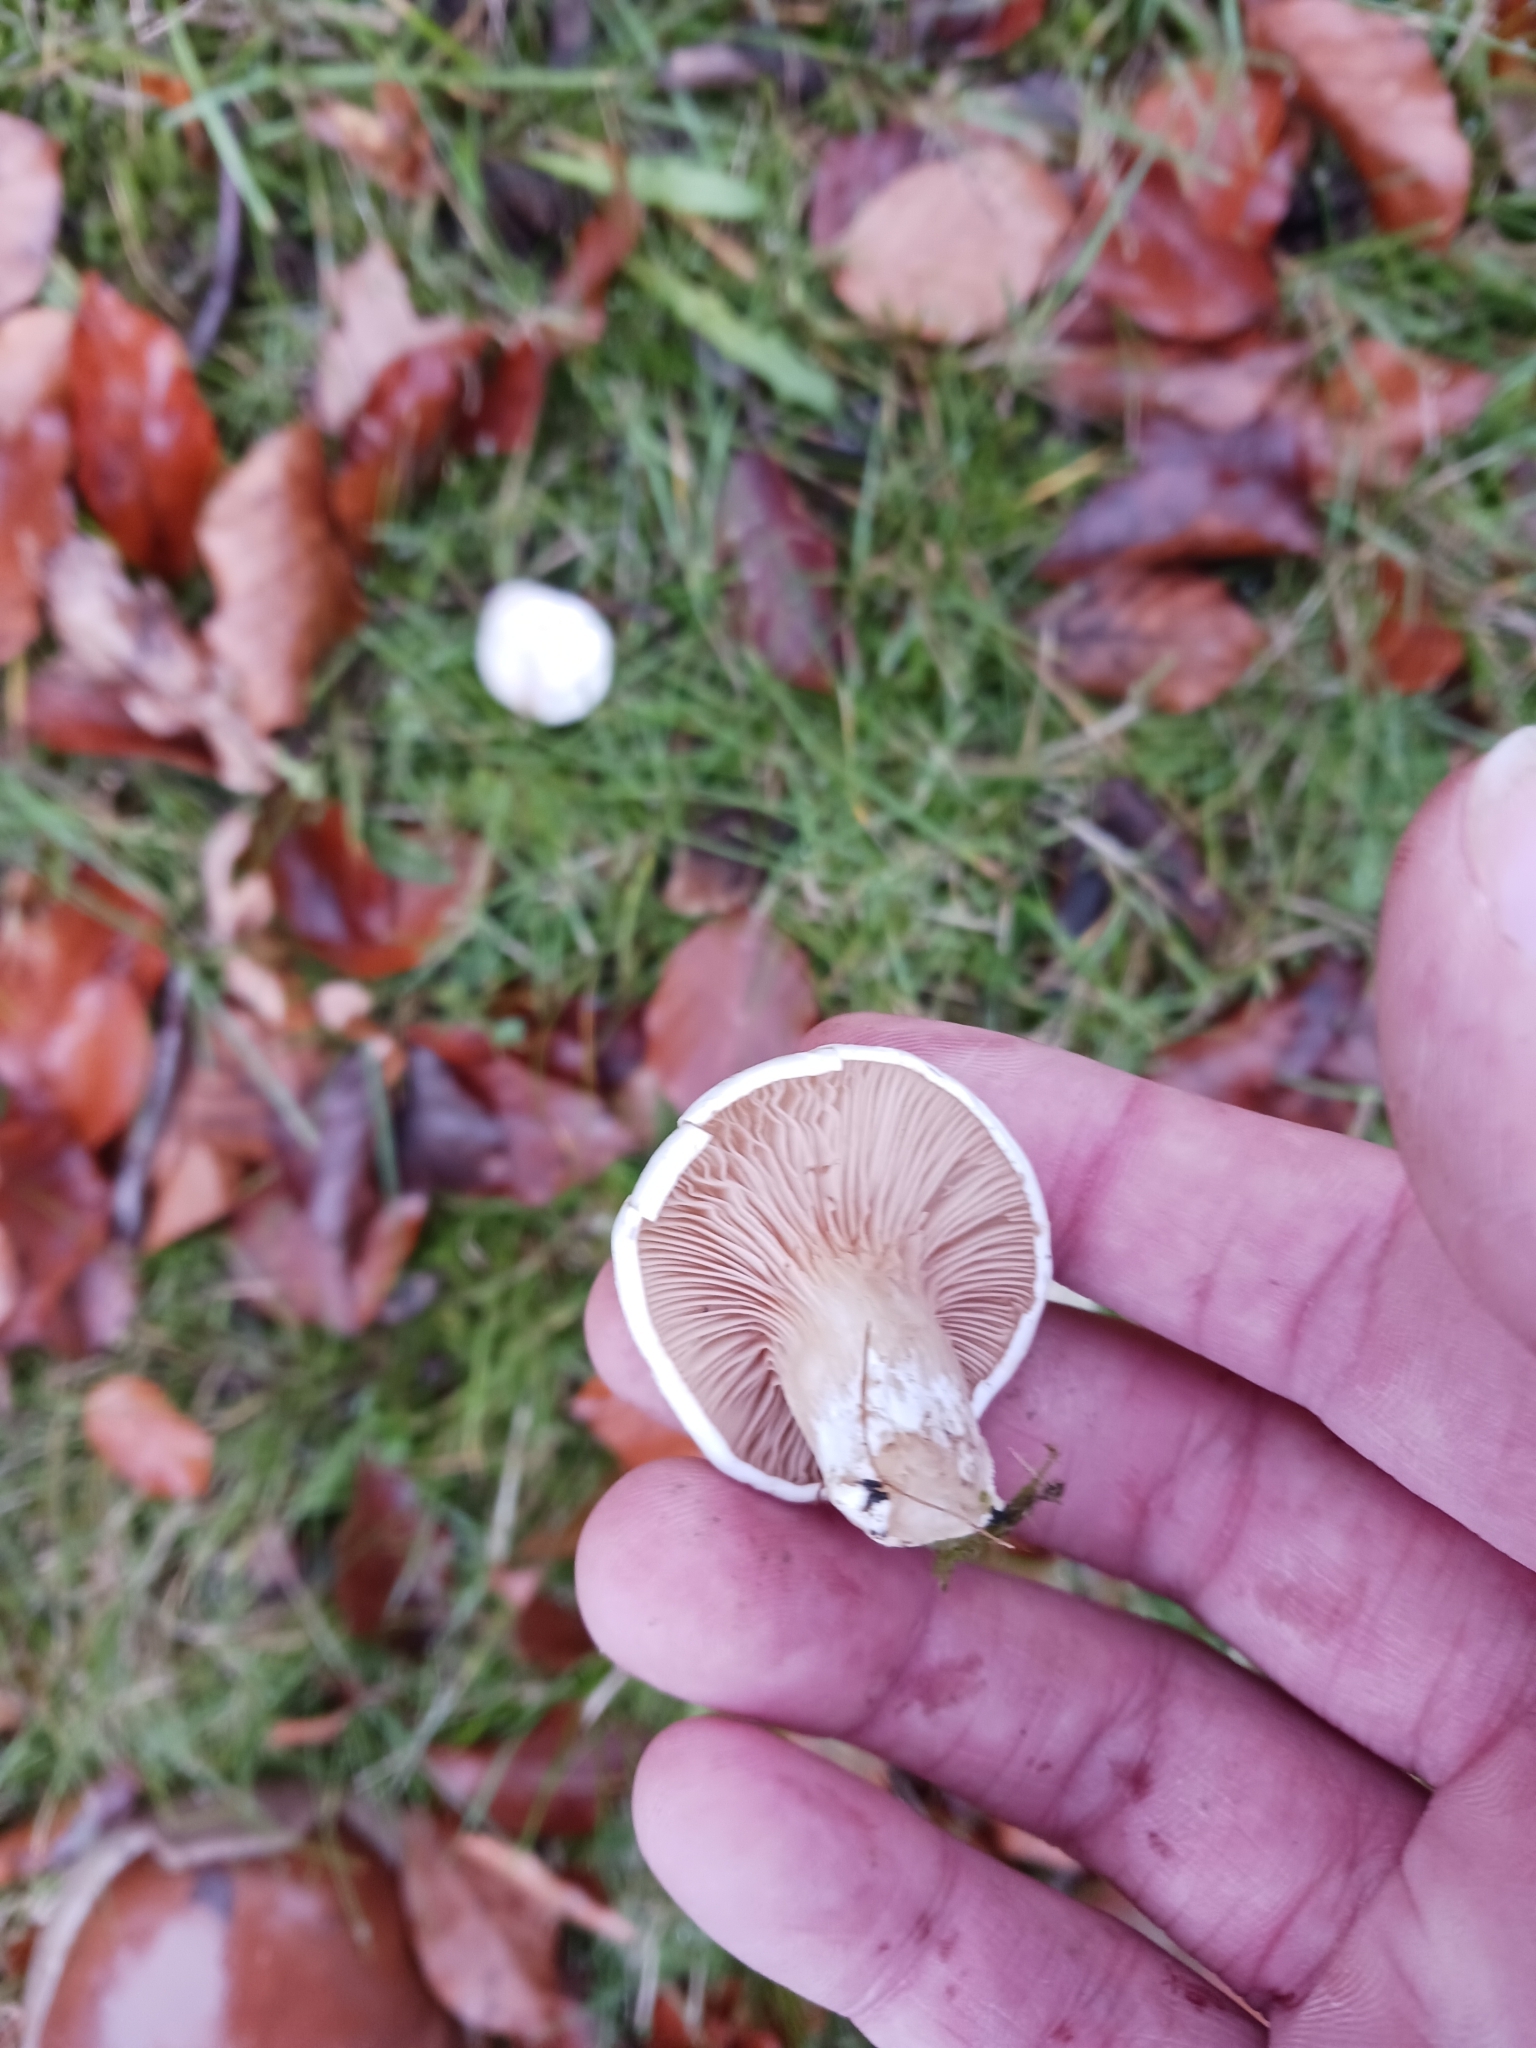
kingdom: Fungi
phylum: Basidiomycota
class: Agaricomycetes
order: Agaricales
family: Entolomataceae
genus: Clitopilus
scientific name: Clitopilus prunulus
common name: The miller
